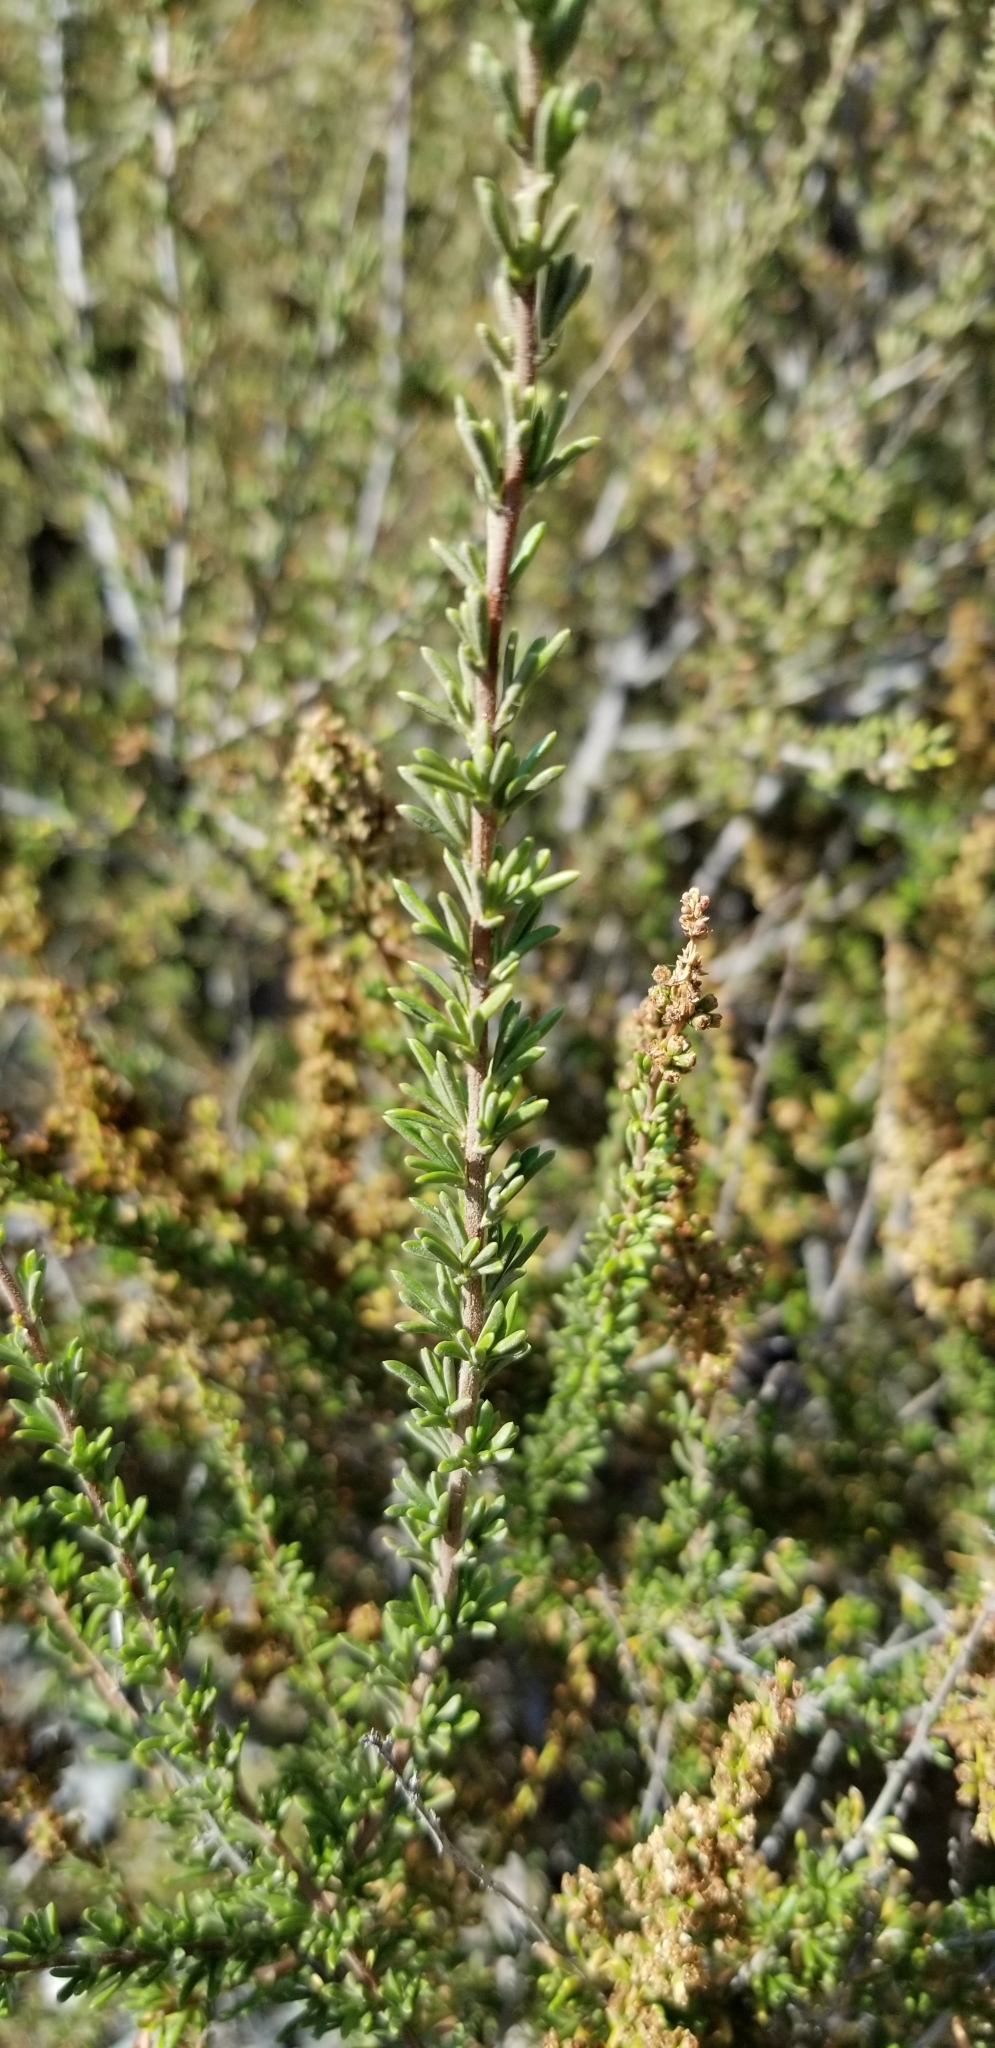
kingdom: Plantae
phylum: Tracheophyta
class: Magnoliopsida
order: Rosales
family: Rosaceae
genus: Adenostoma
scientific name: Adenostoma fasciculatum
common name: Chamise
